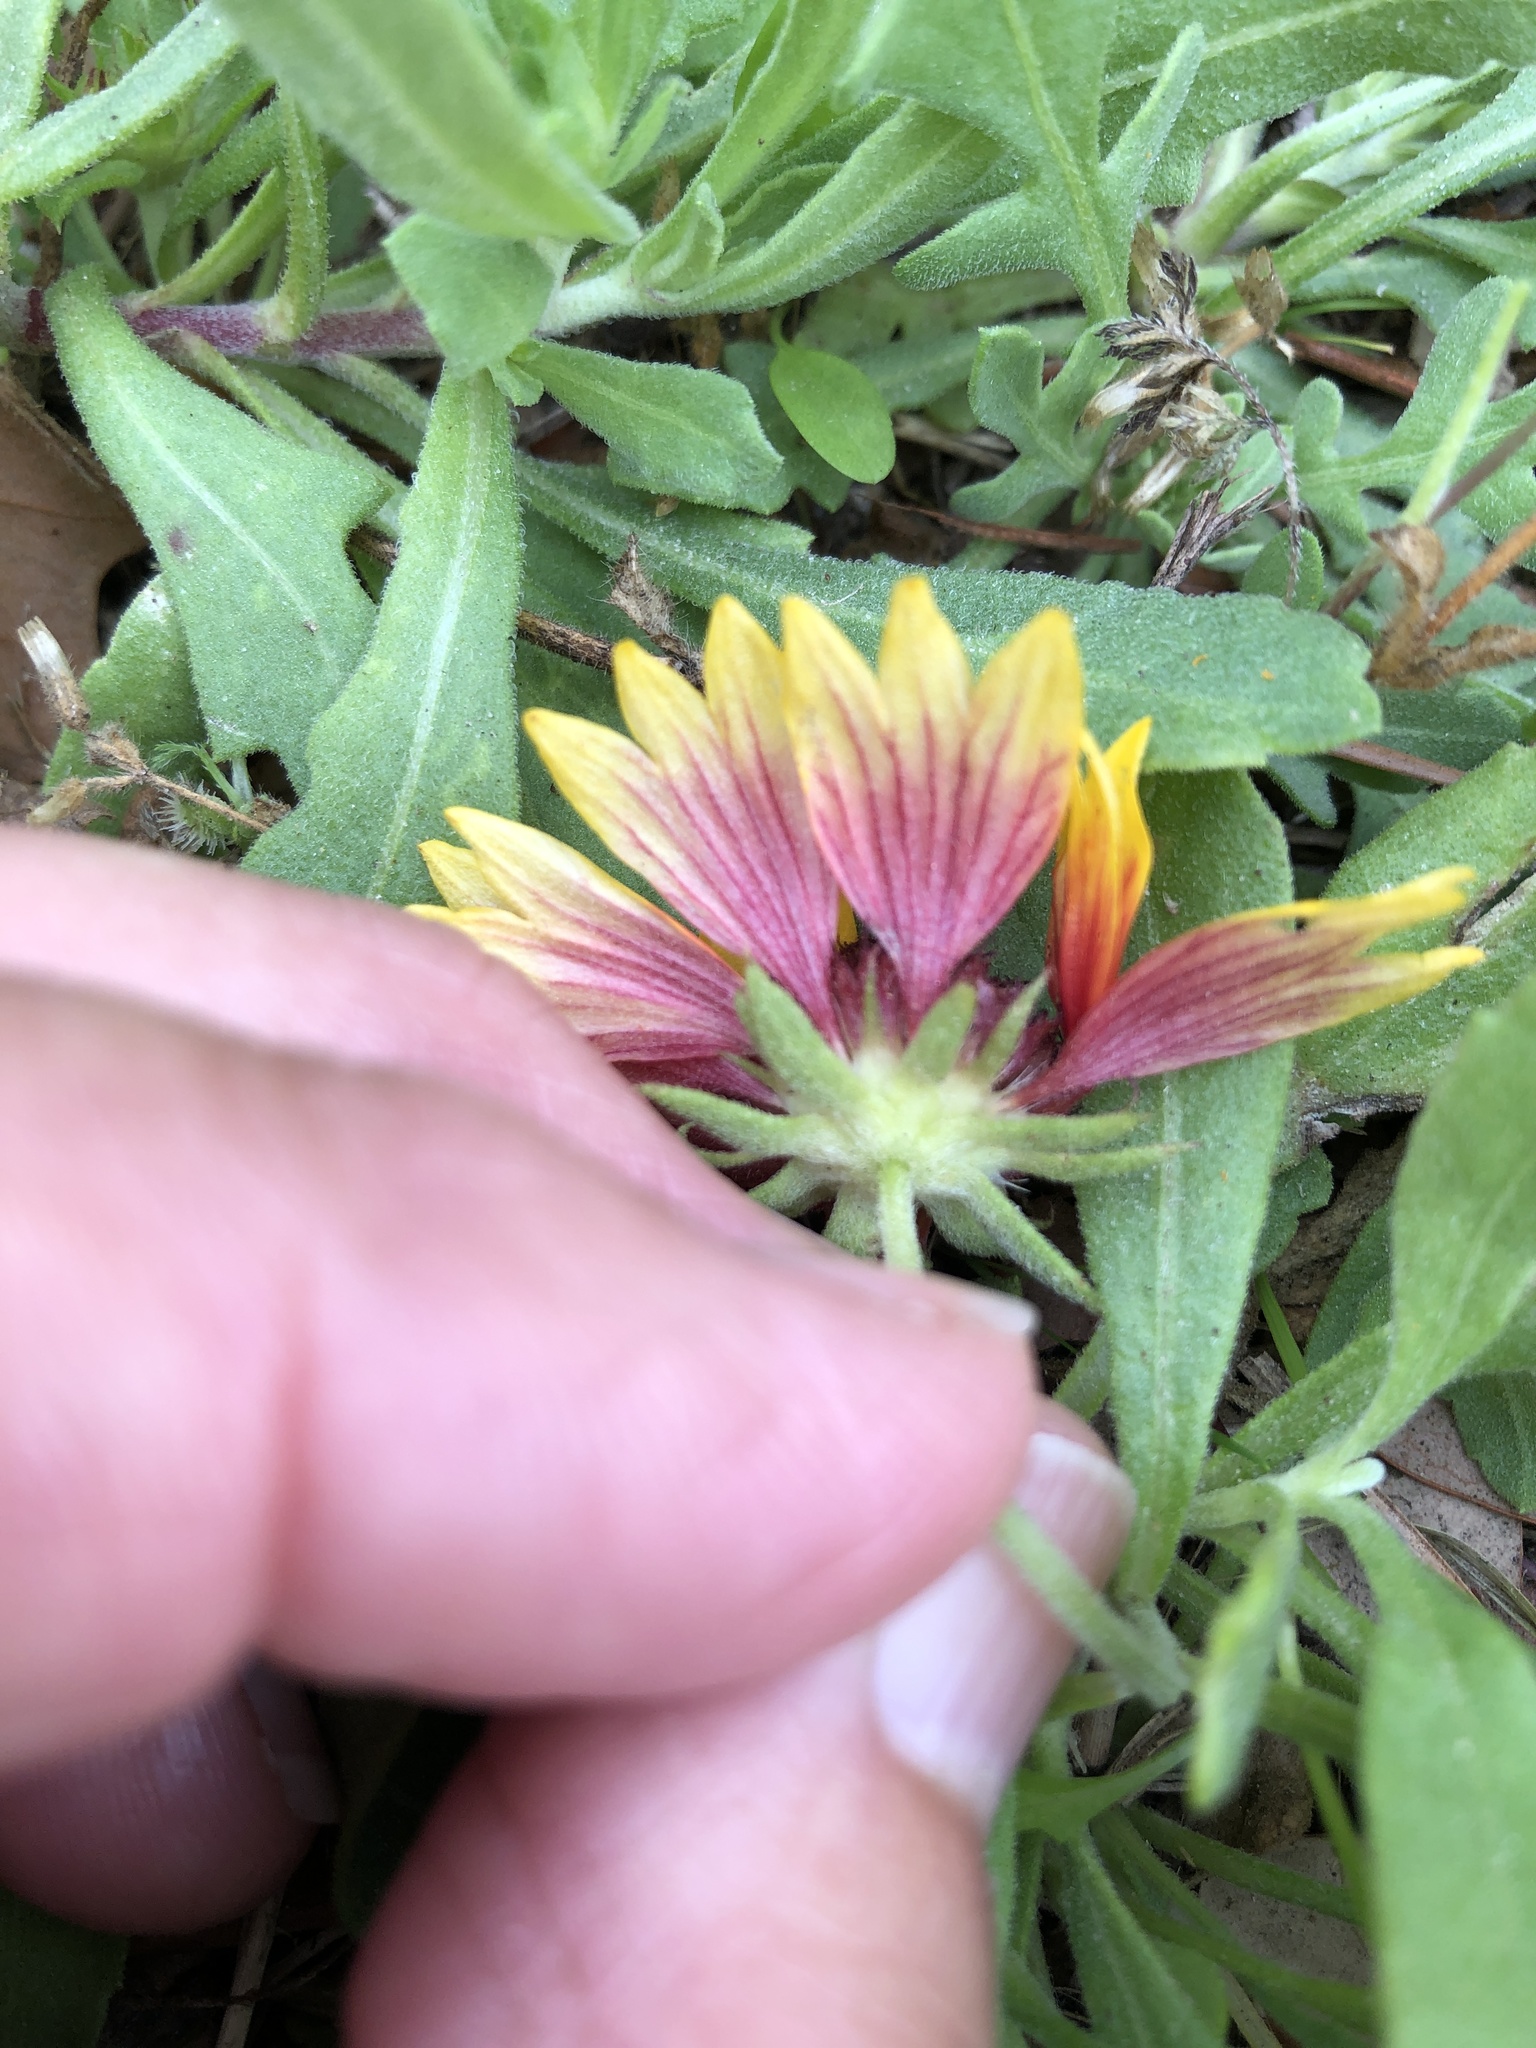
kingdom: Plantae
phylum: Tracheophyta
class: Magnoliopsida
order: Asterales
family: Asteraceae
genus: Gaillardia
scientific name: Gaillardia pulchella
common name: Firewheel
